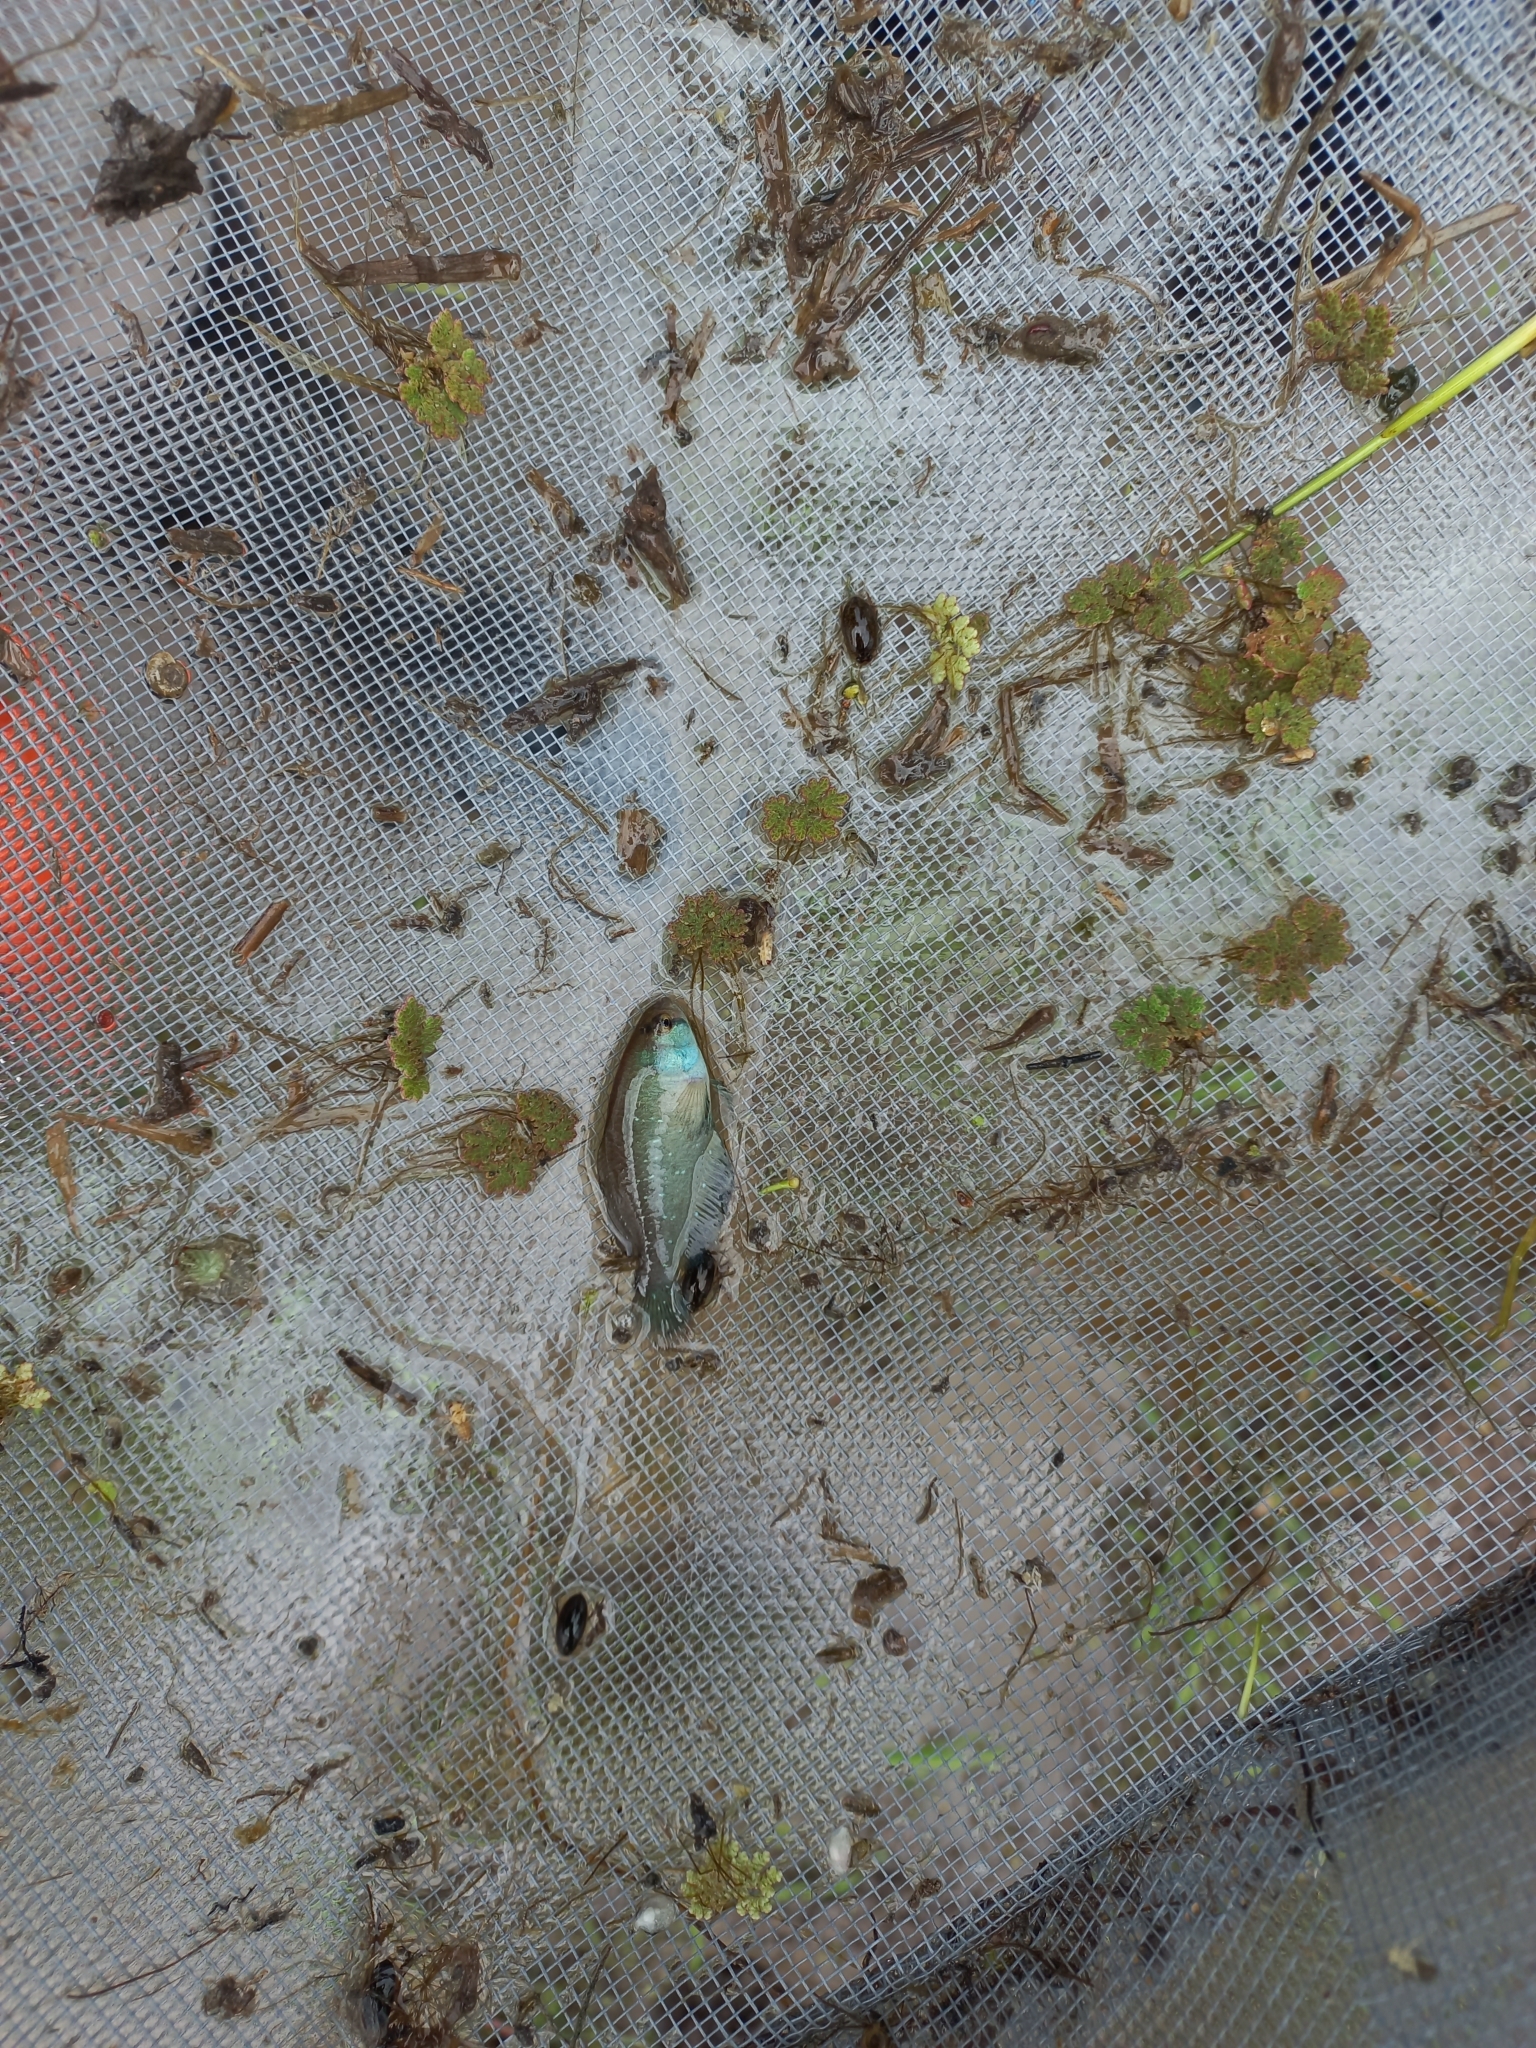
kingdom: Animalia
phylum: Chordata
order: Cyprinodontiformes
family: Rivulidae
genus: Austrolebias
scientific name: Austrolebias bellottii
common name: Argentine pearlfish
